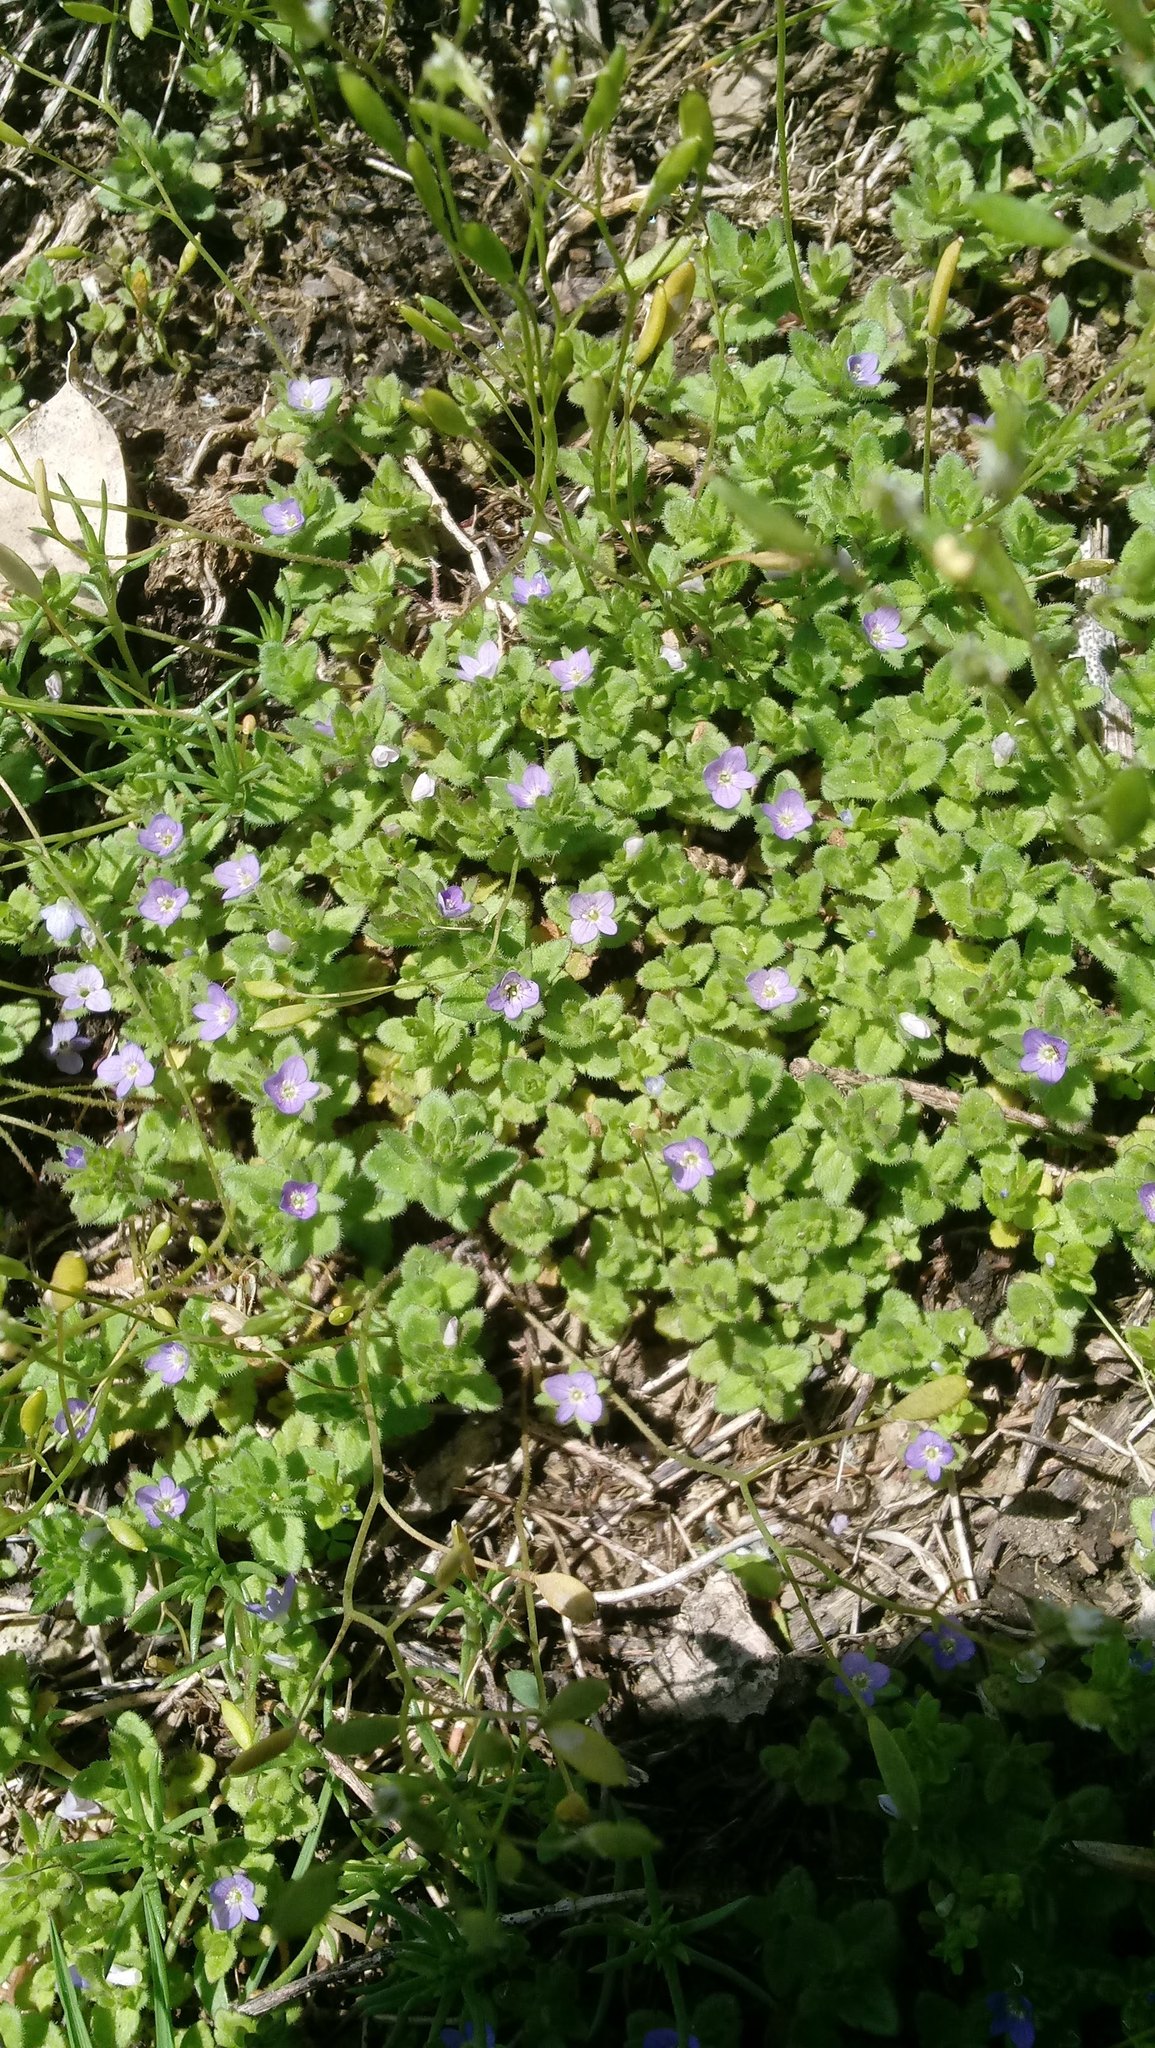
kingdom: Plantae
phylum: Tracheophyta
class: Magnoliopsida
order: Lamiales
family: Plantaginaceae
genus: Veronica
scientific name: Veronica arvensis
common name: Corn speedwell
